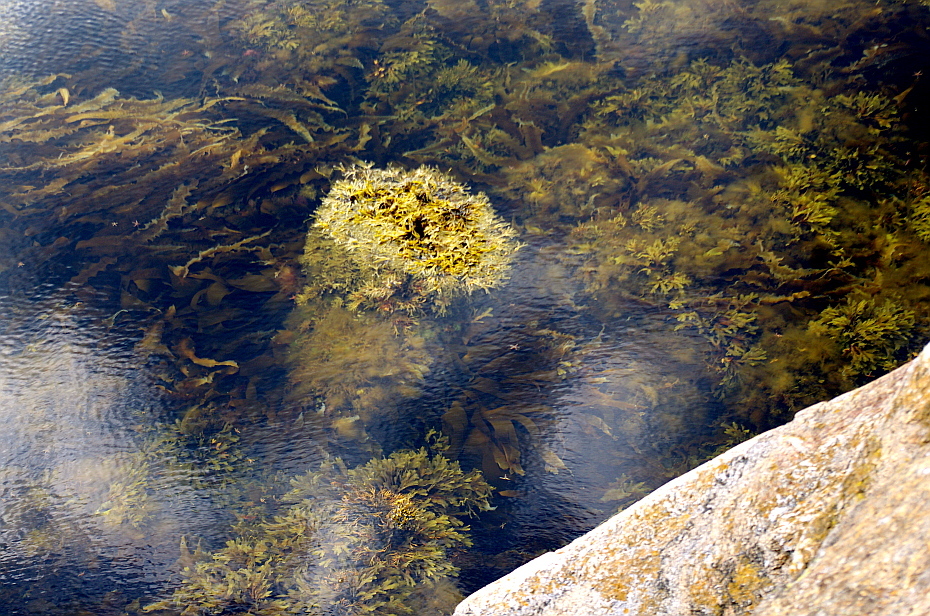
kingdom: Chromista
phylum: Ochrophyta
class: Phaeophyceae
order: Laminariales
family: Laminariaceae
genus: Laminaria
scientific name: Laminaria digitata
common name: Oarweed
